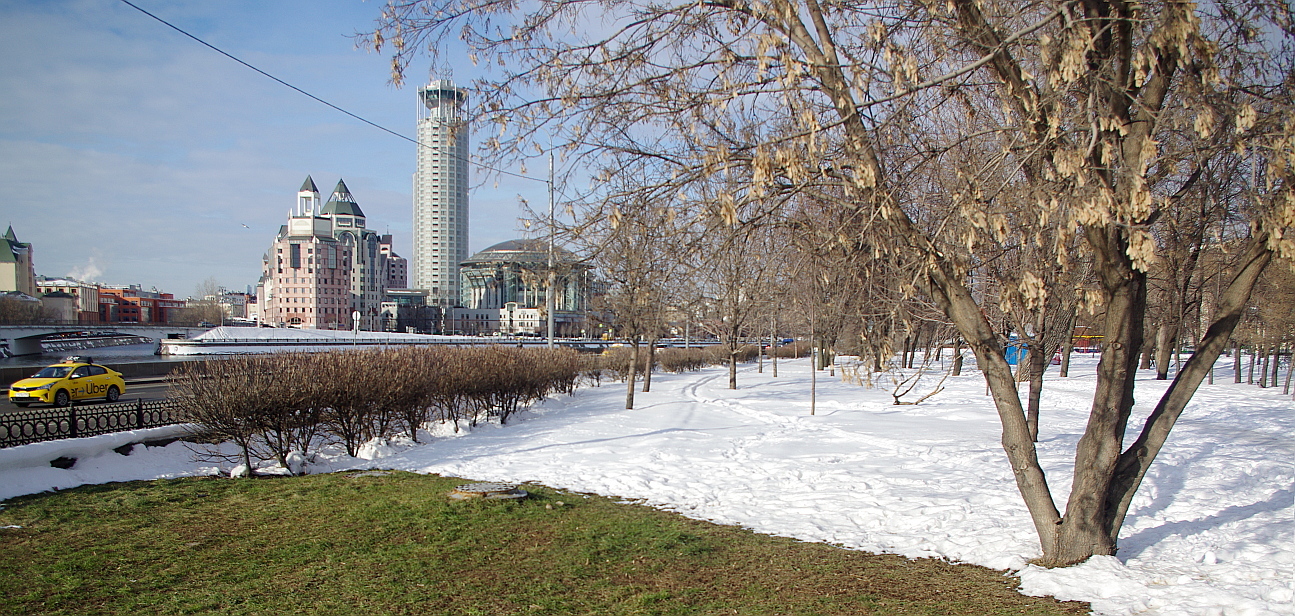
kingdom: Plantae
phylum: Tracheophyta
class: Magnoliopsida
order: Sapindales
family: Sapindaceae
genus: Acer
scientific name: Acer negundo
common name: Ashleaf maple
